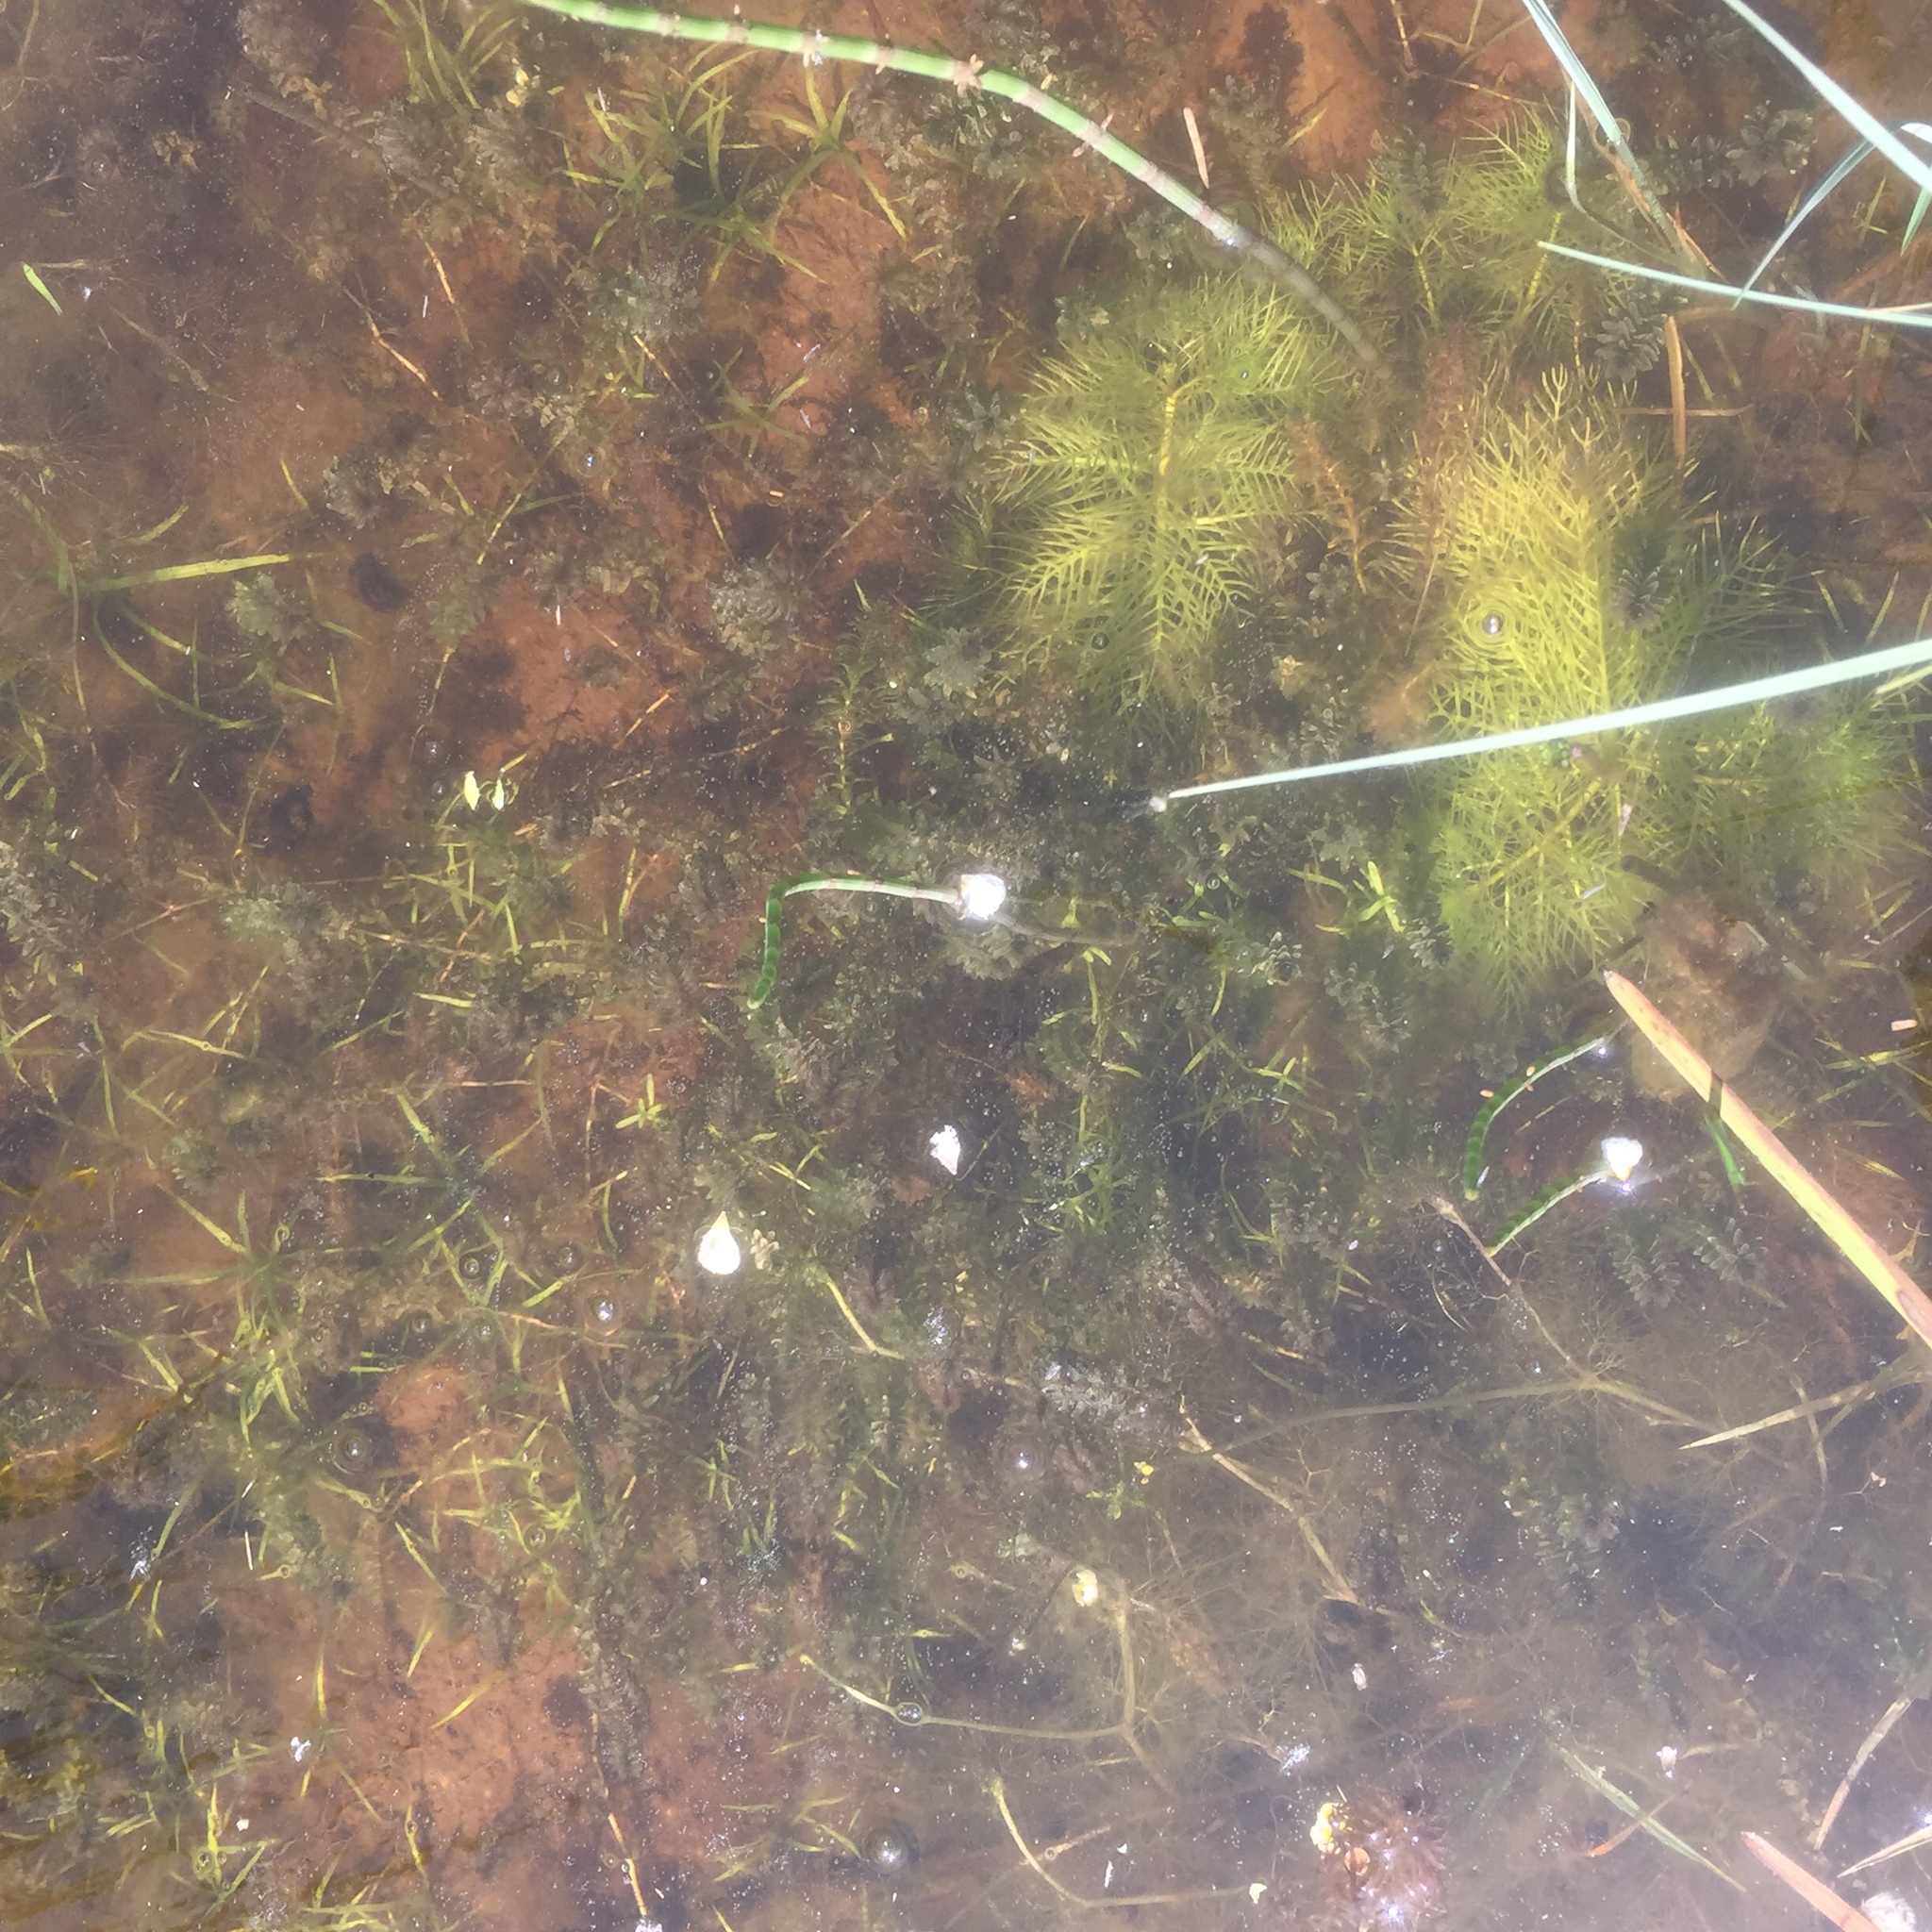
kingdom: Plantae
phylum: Tracheophyta
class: Magnoliopsida
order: Ericales
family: Primulaceae
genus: Hottonia
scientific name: Hottonia palustris
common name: Water-violet
